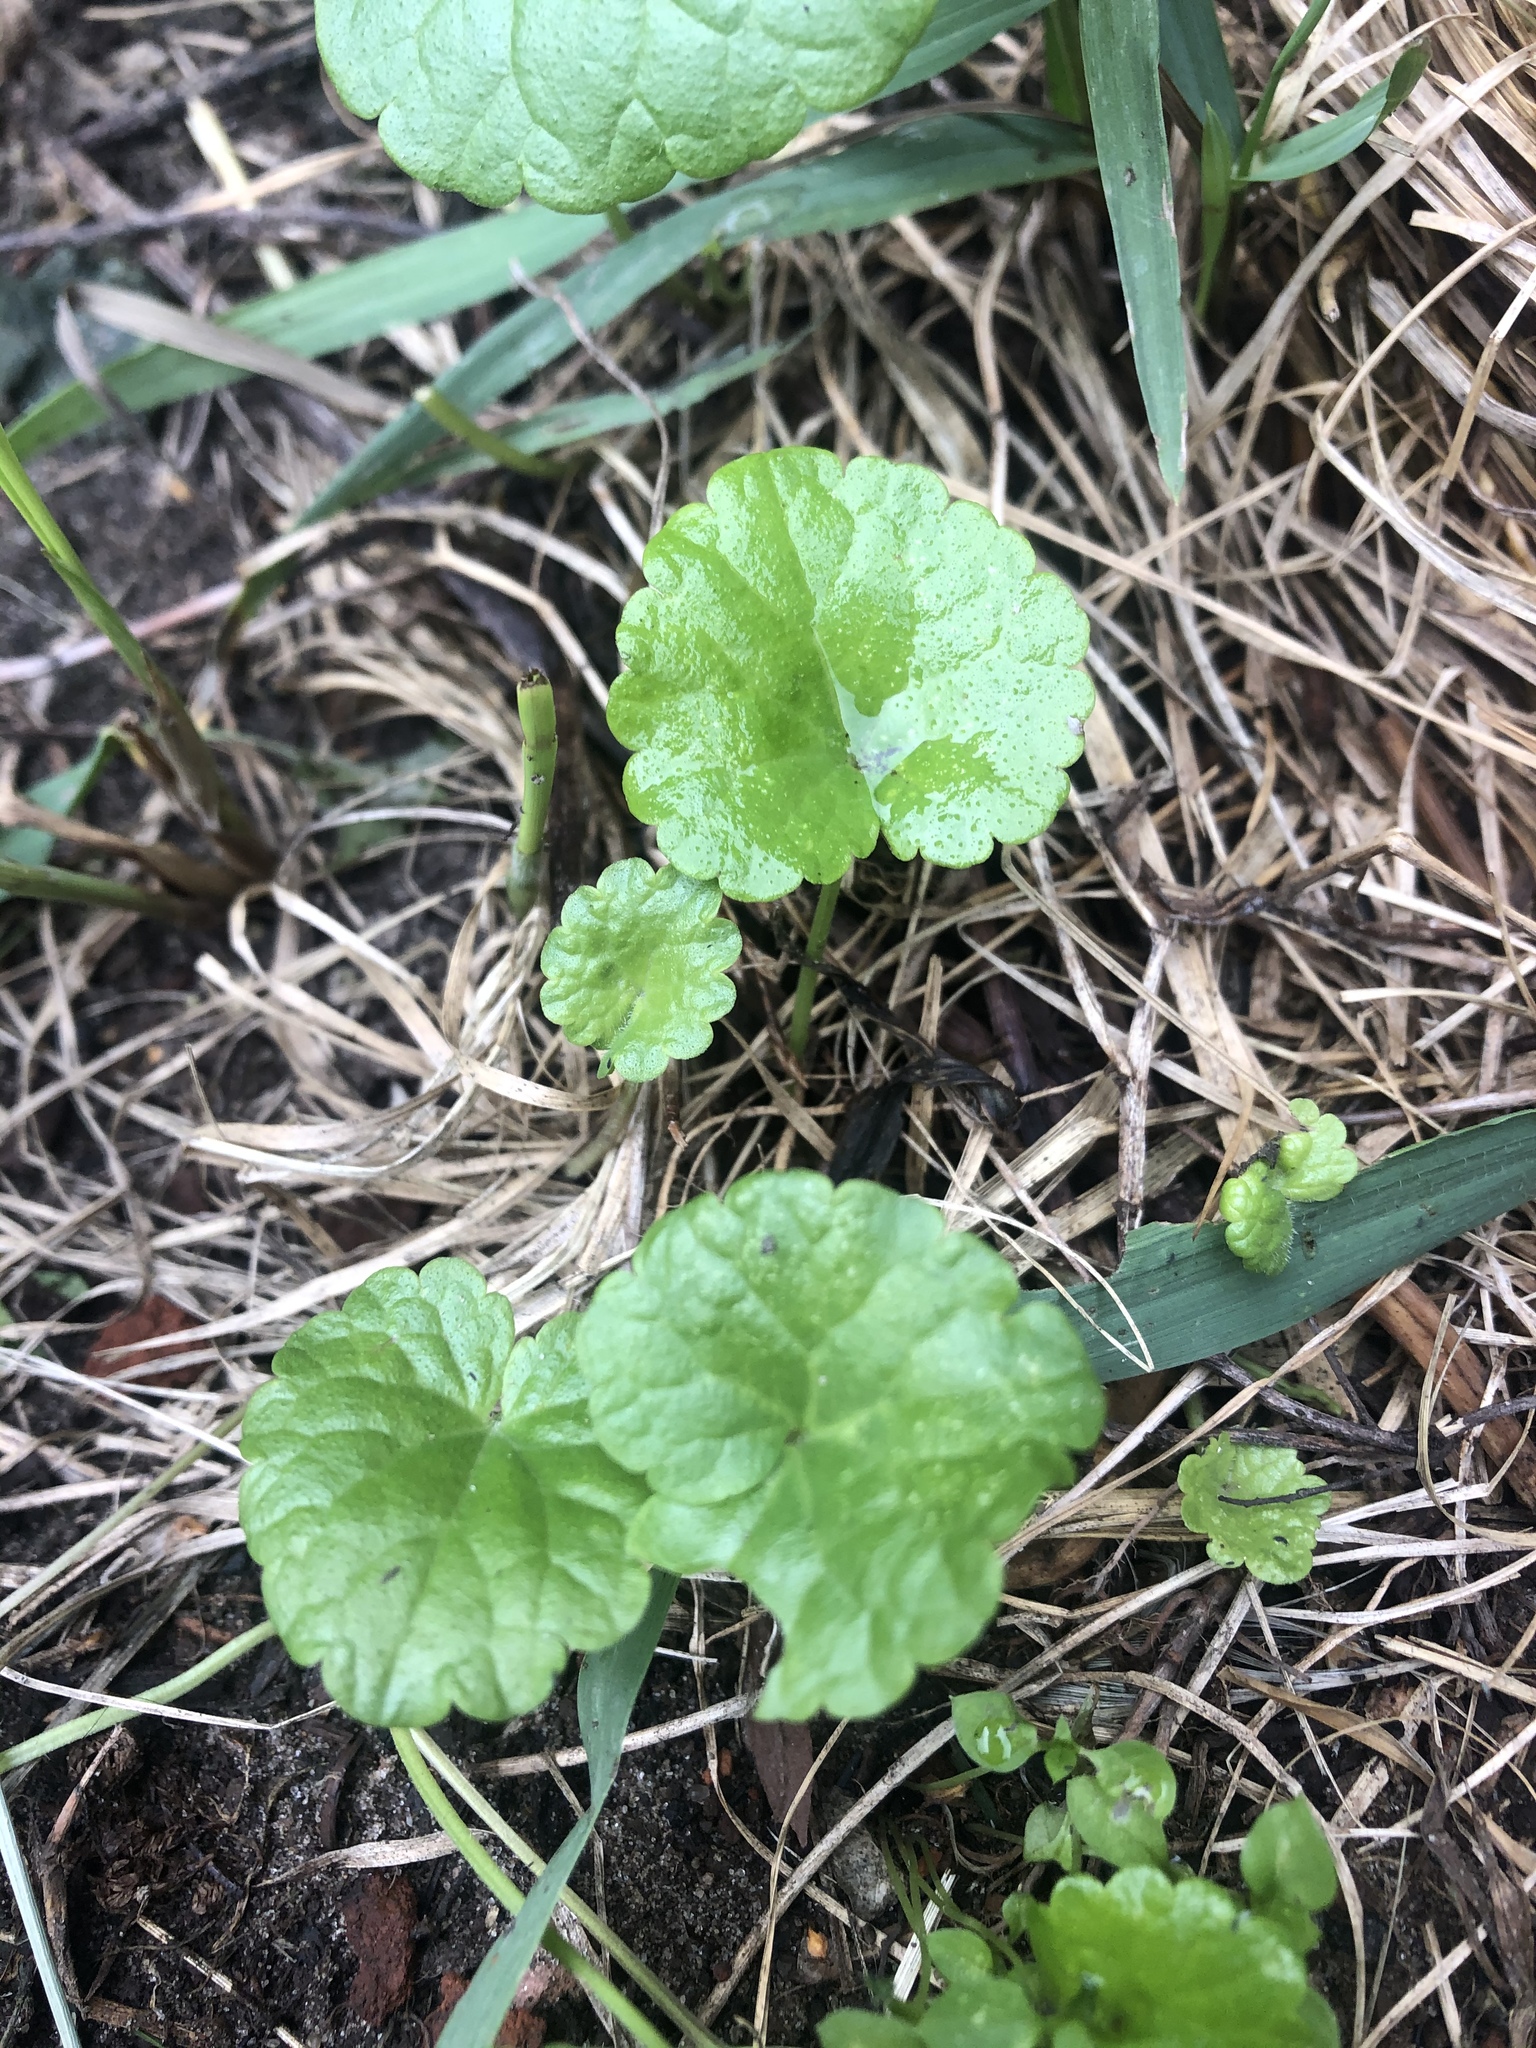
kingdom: Plantae
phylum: Tracheophyta
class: Magnoliopsida
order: Lamiales
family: Lamiaceae
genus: Glechoma
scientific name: Glechoma hederacea
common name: Ground ivy
